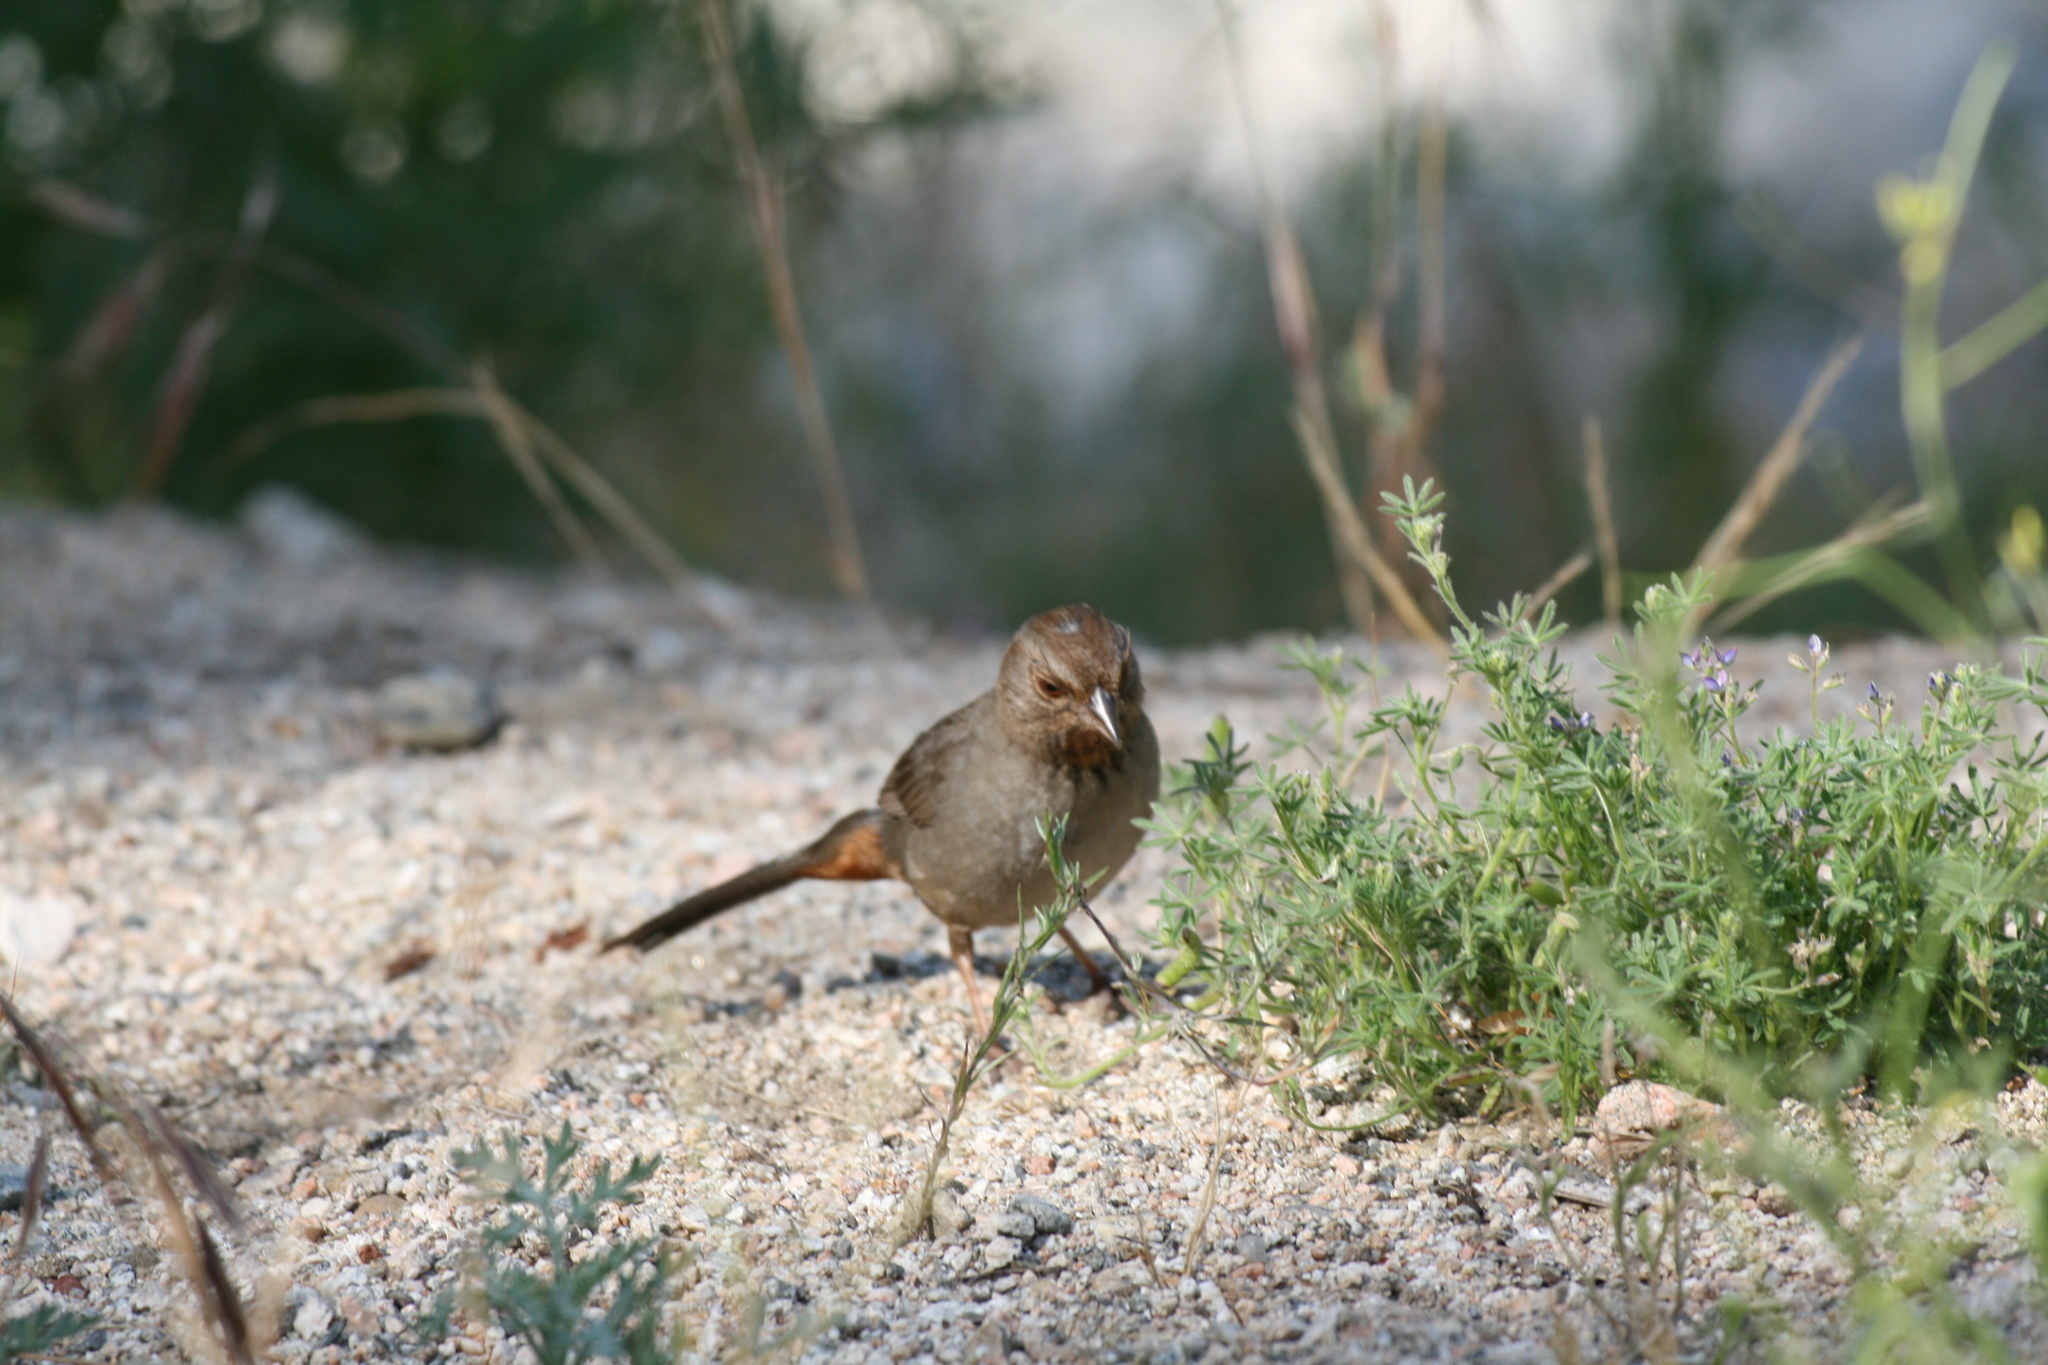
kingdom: Animalia
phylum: Chordata
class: Aves
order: Passeriformes
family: Passerellidae
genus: Melozone
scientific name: Melozone crissalis
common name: California towhee
